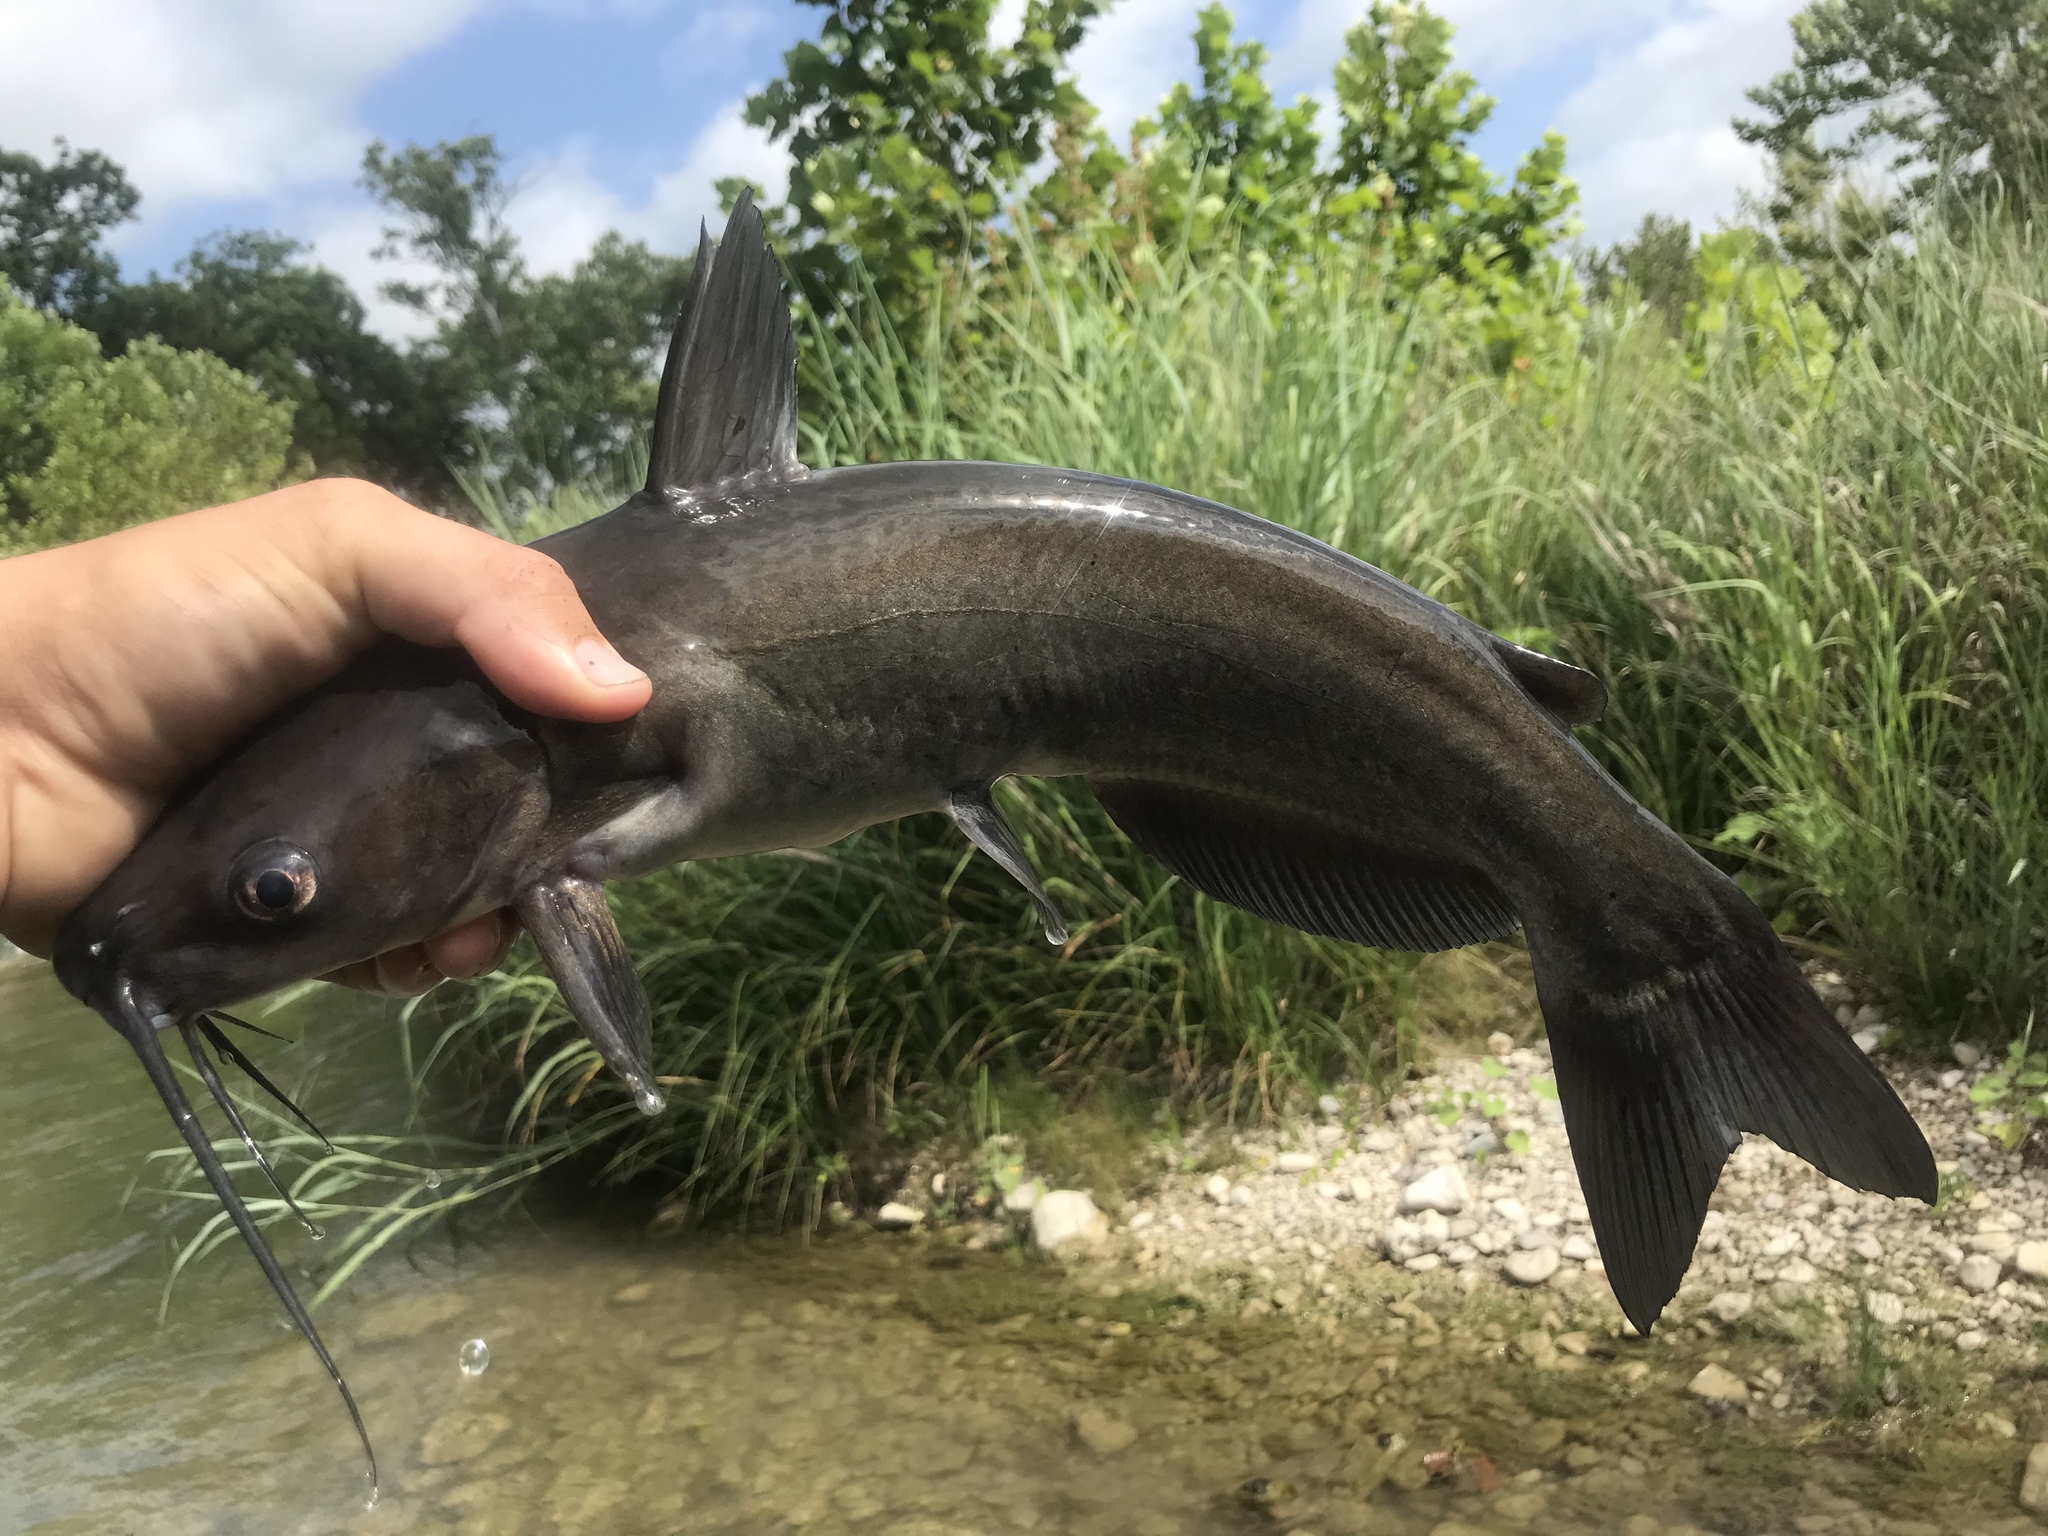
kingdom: Animalia
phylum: Chordata
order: Siluriformes
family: Ictaluridae
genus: Ictalurus
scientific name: Ictalurus punctatus
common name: Channel catfish
